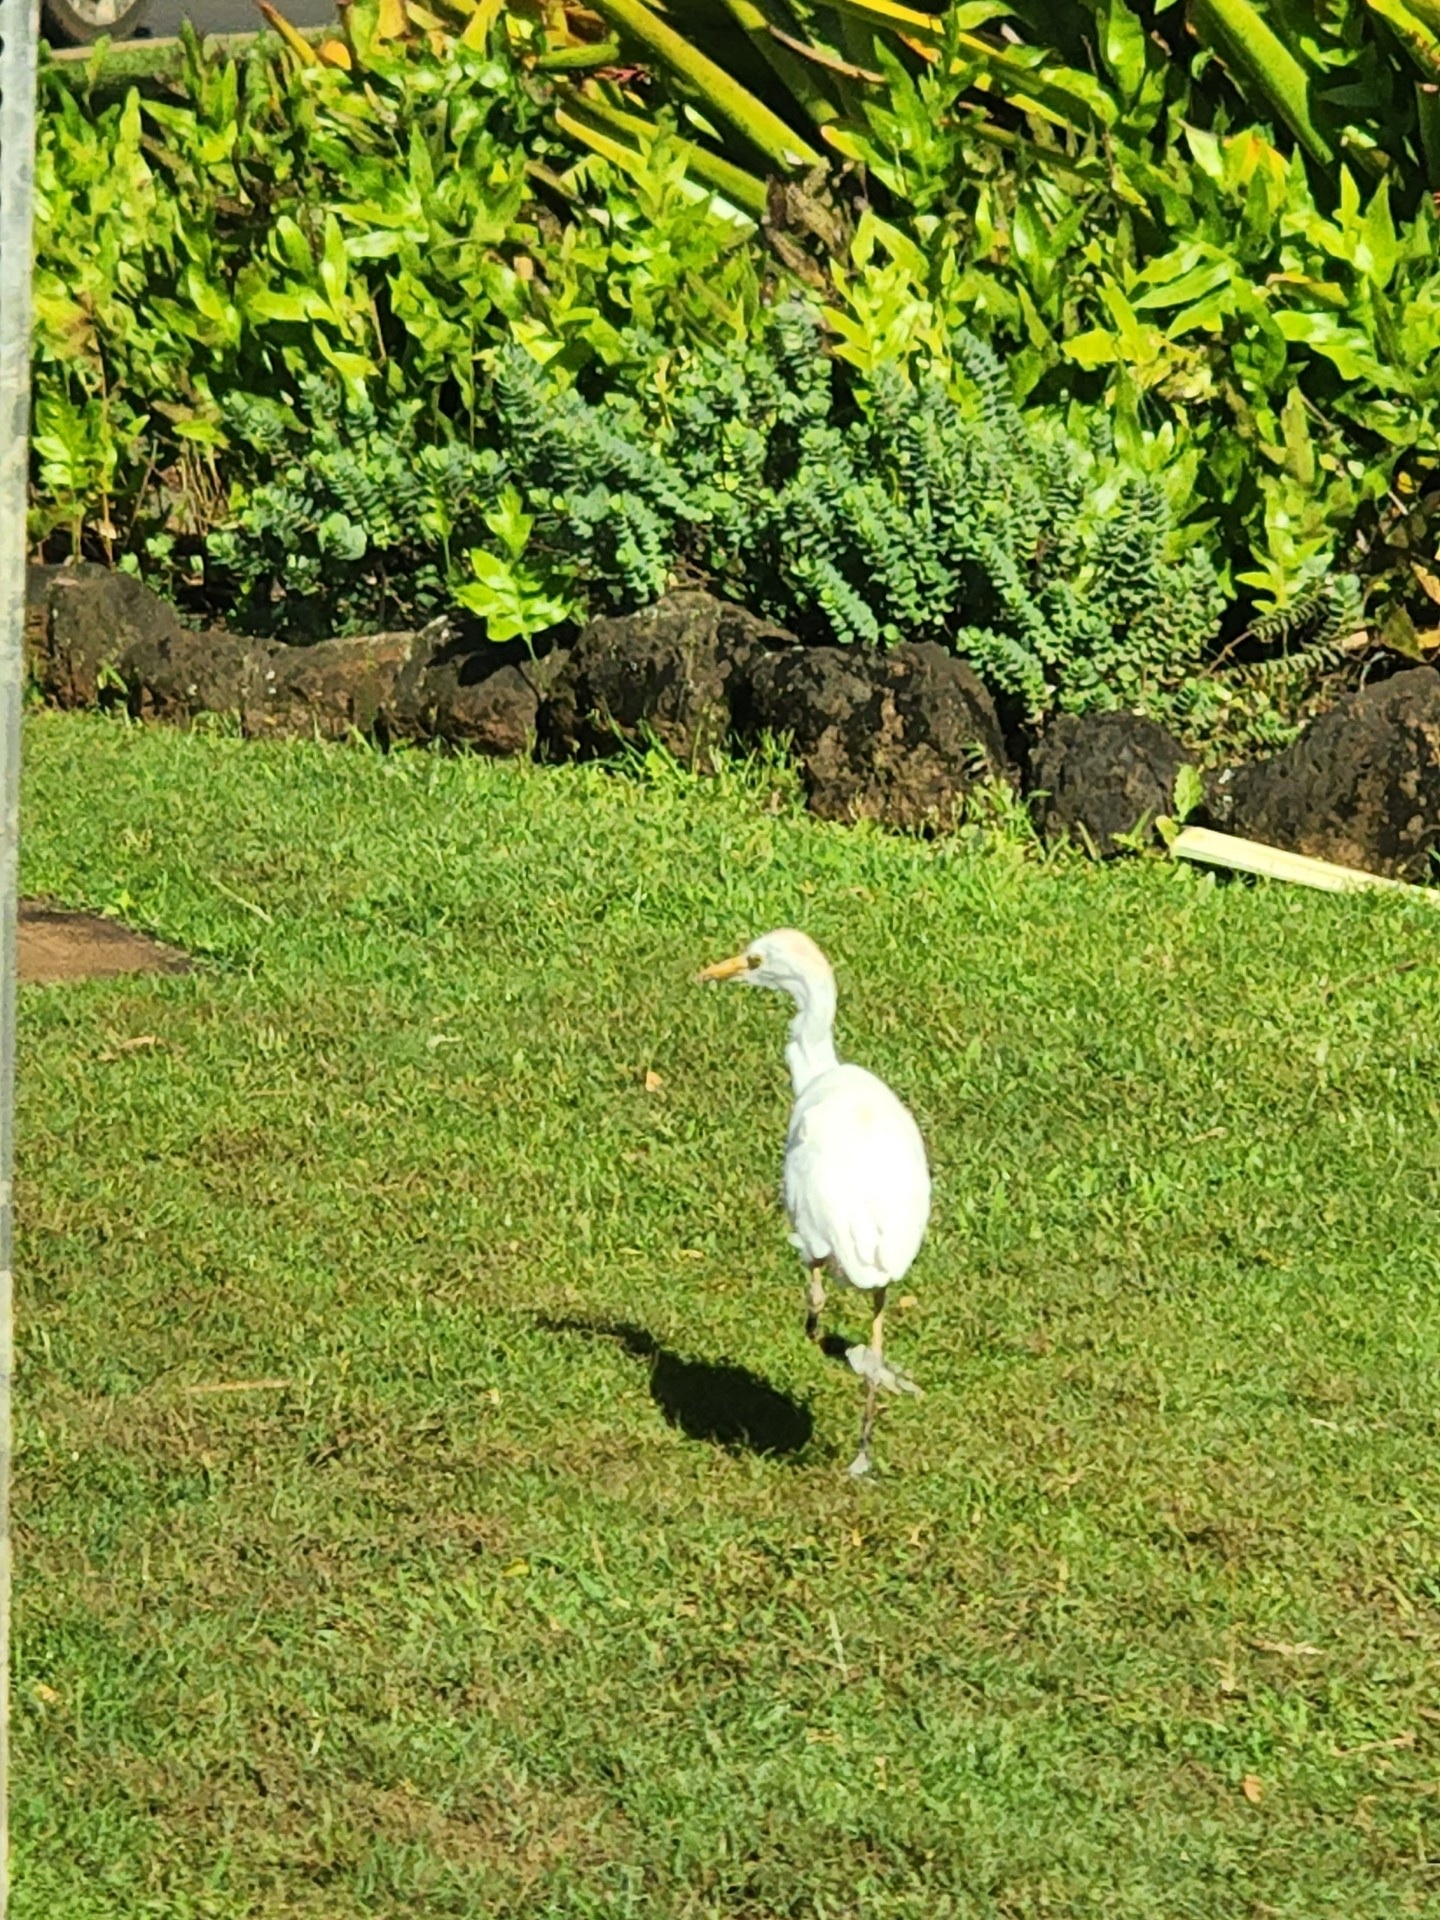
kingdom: Animalia
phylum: Chordata
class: Aves
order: Pelecaniformes
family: Ardeidae
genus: Bubulcus
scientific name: Bubulcus ibis
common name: Cattle egret
